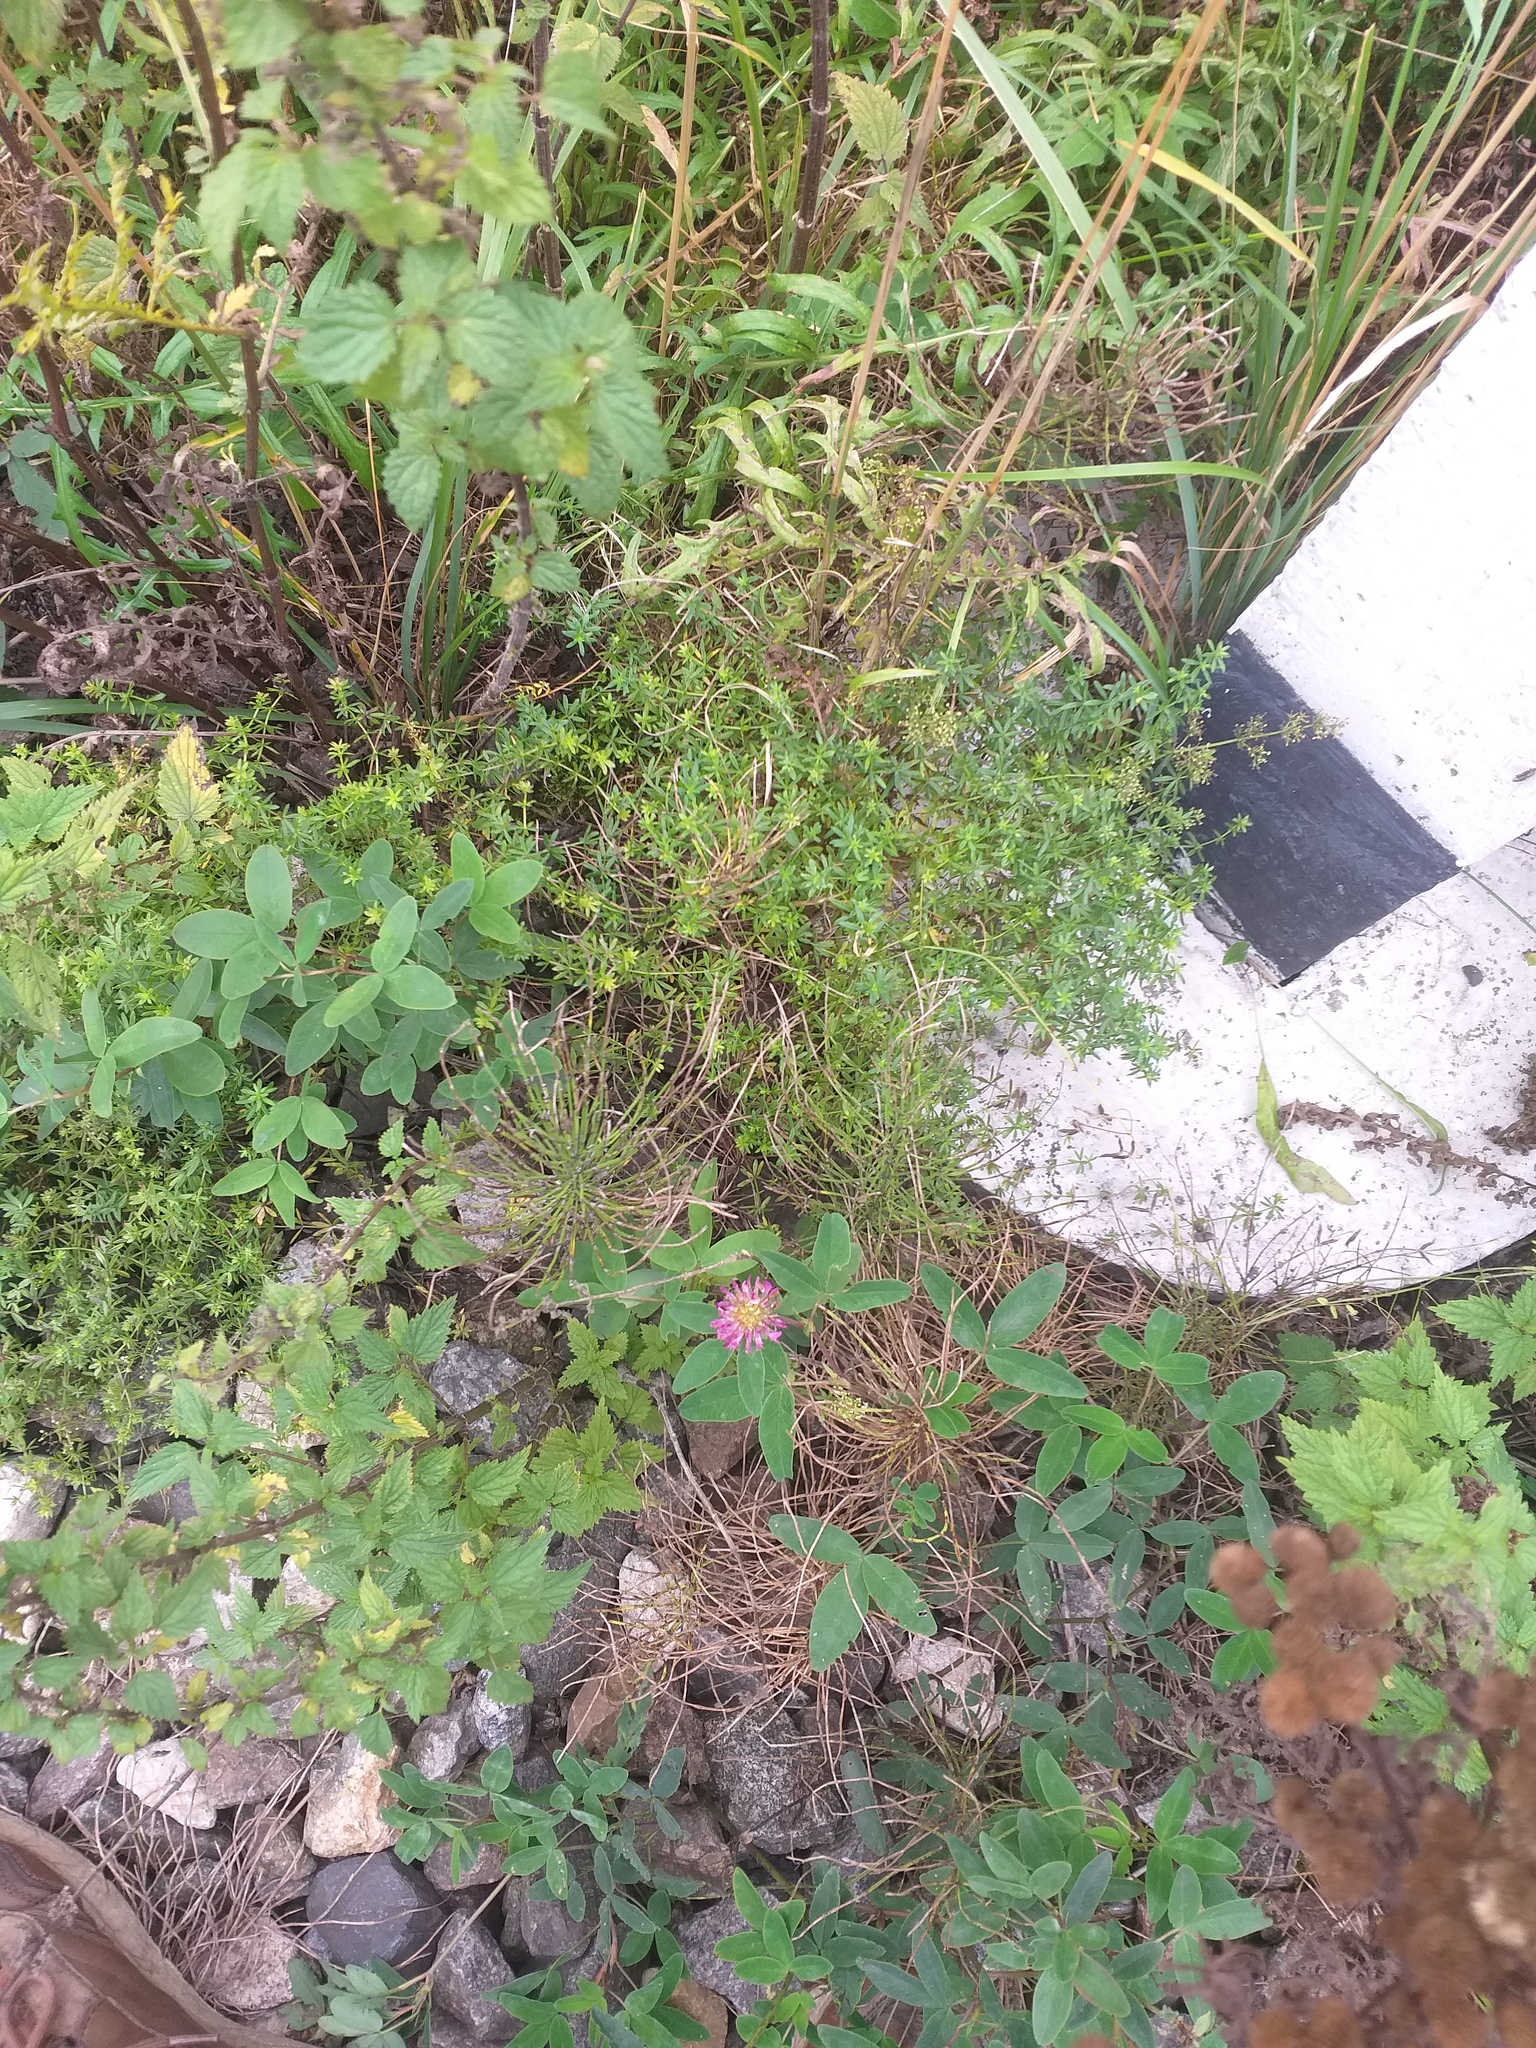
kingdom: Plantae
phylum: Tracheophyta
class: Magnoliopsida
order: Fabales
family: Fabaceae
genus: Trifolium
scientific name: Trifolium medium
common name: Zigzag clover
